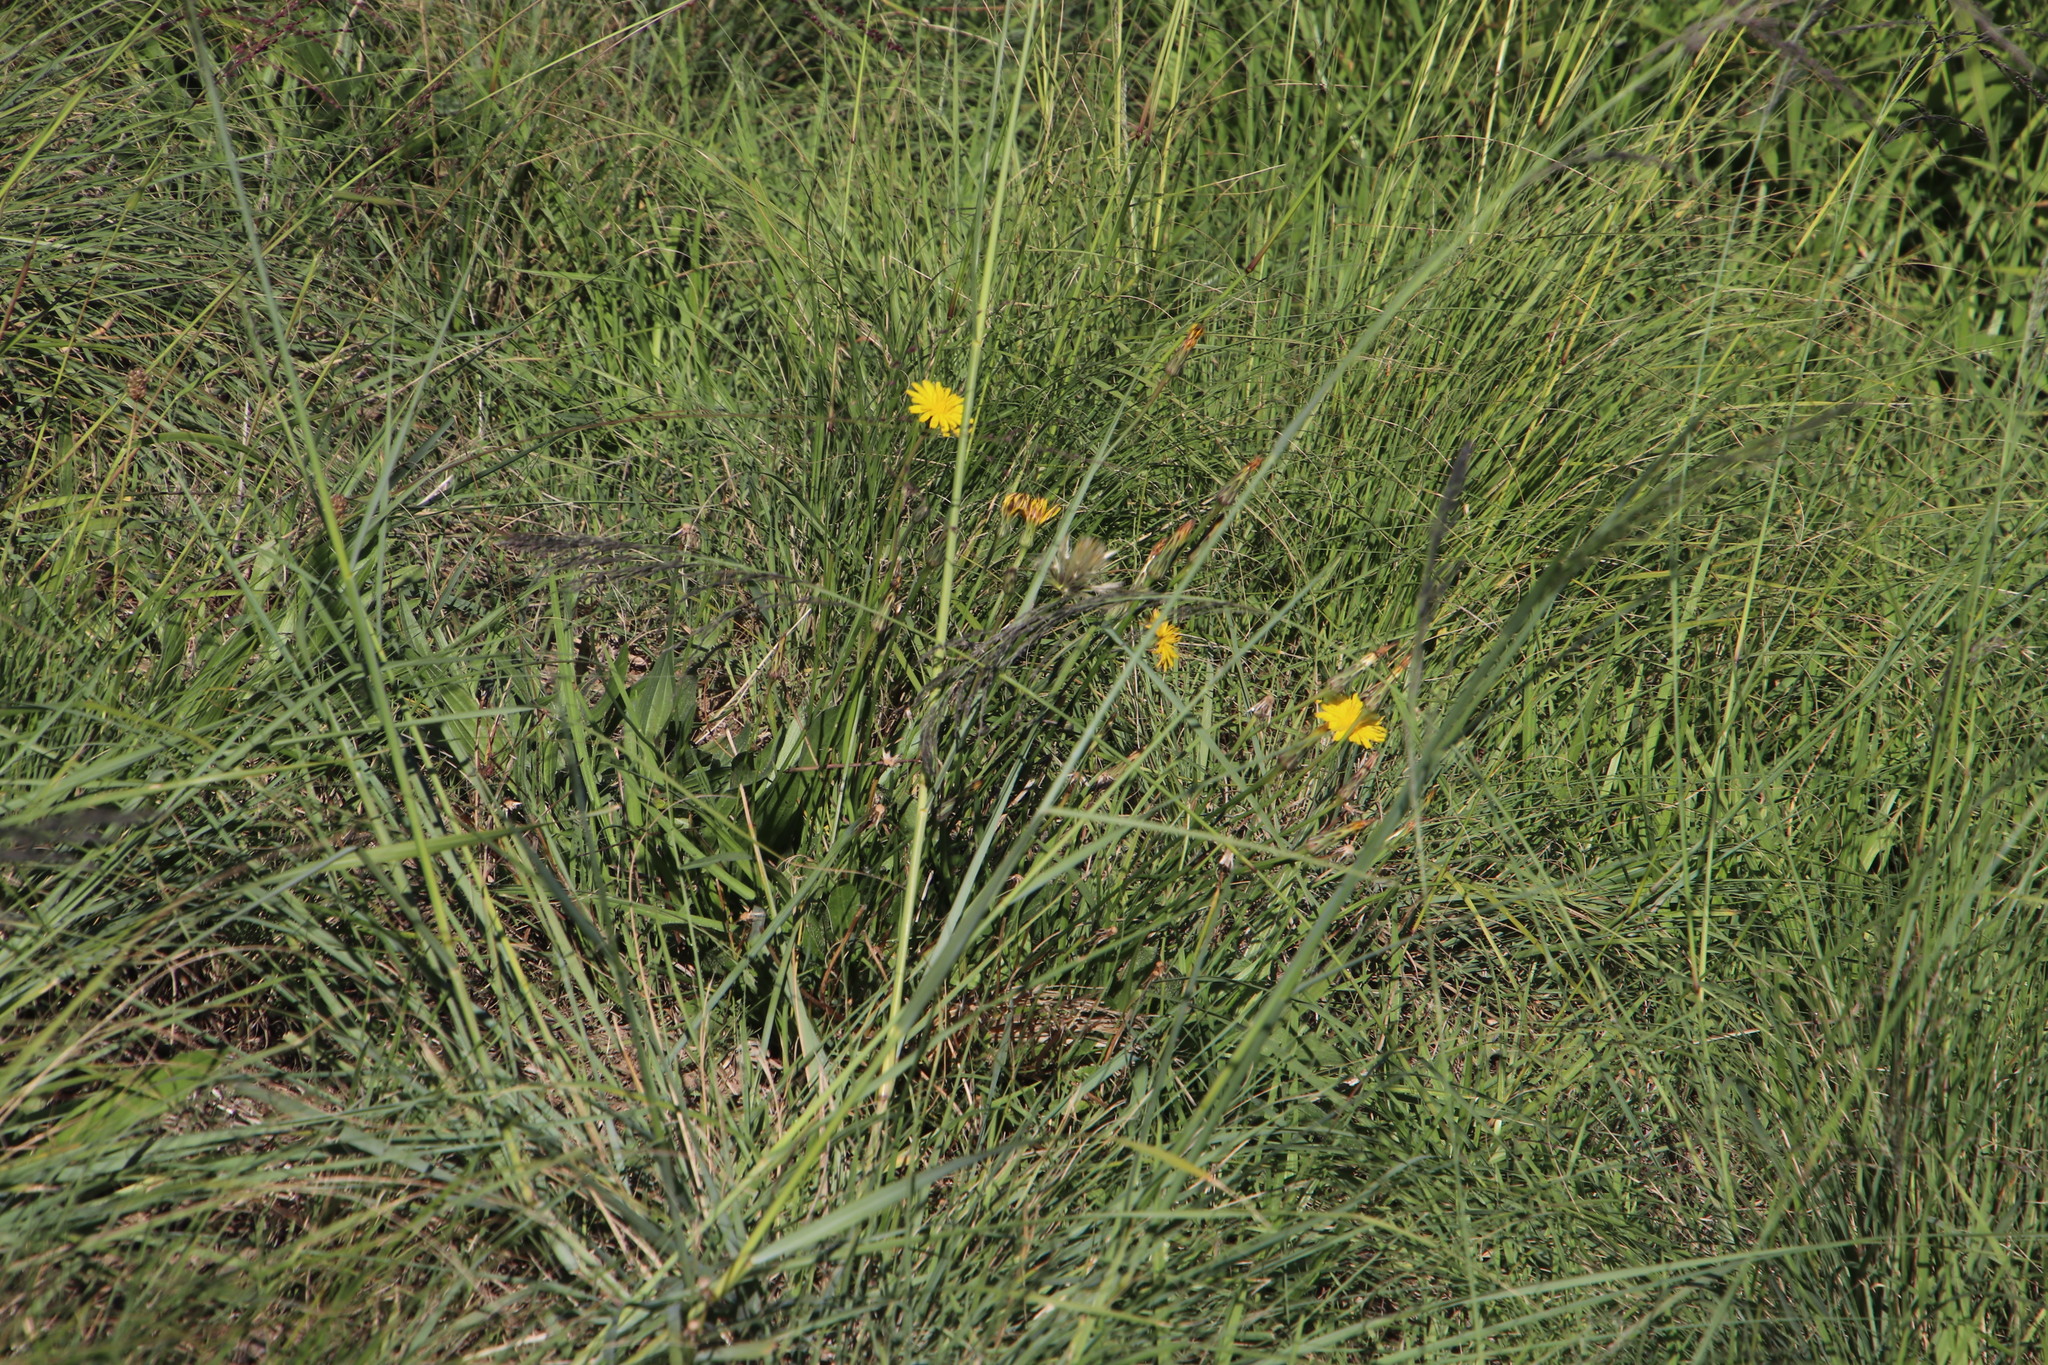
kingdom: Plantae
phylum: Tracheophyta
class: Magnoliopsida
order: Asterales
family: Asteraceae
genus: Hypochaeris
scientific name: Hypochaeris radicata
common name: Flatweed
